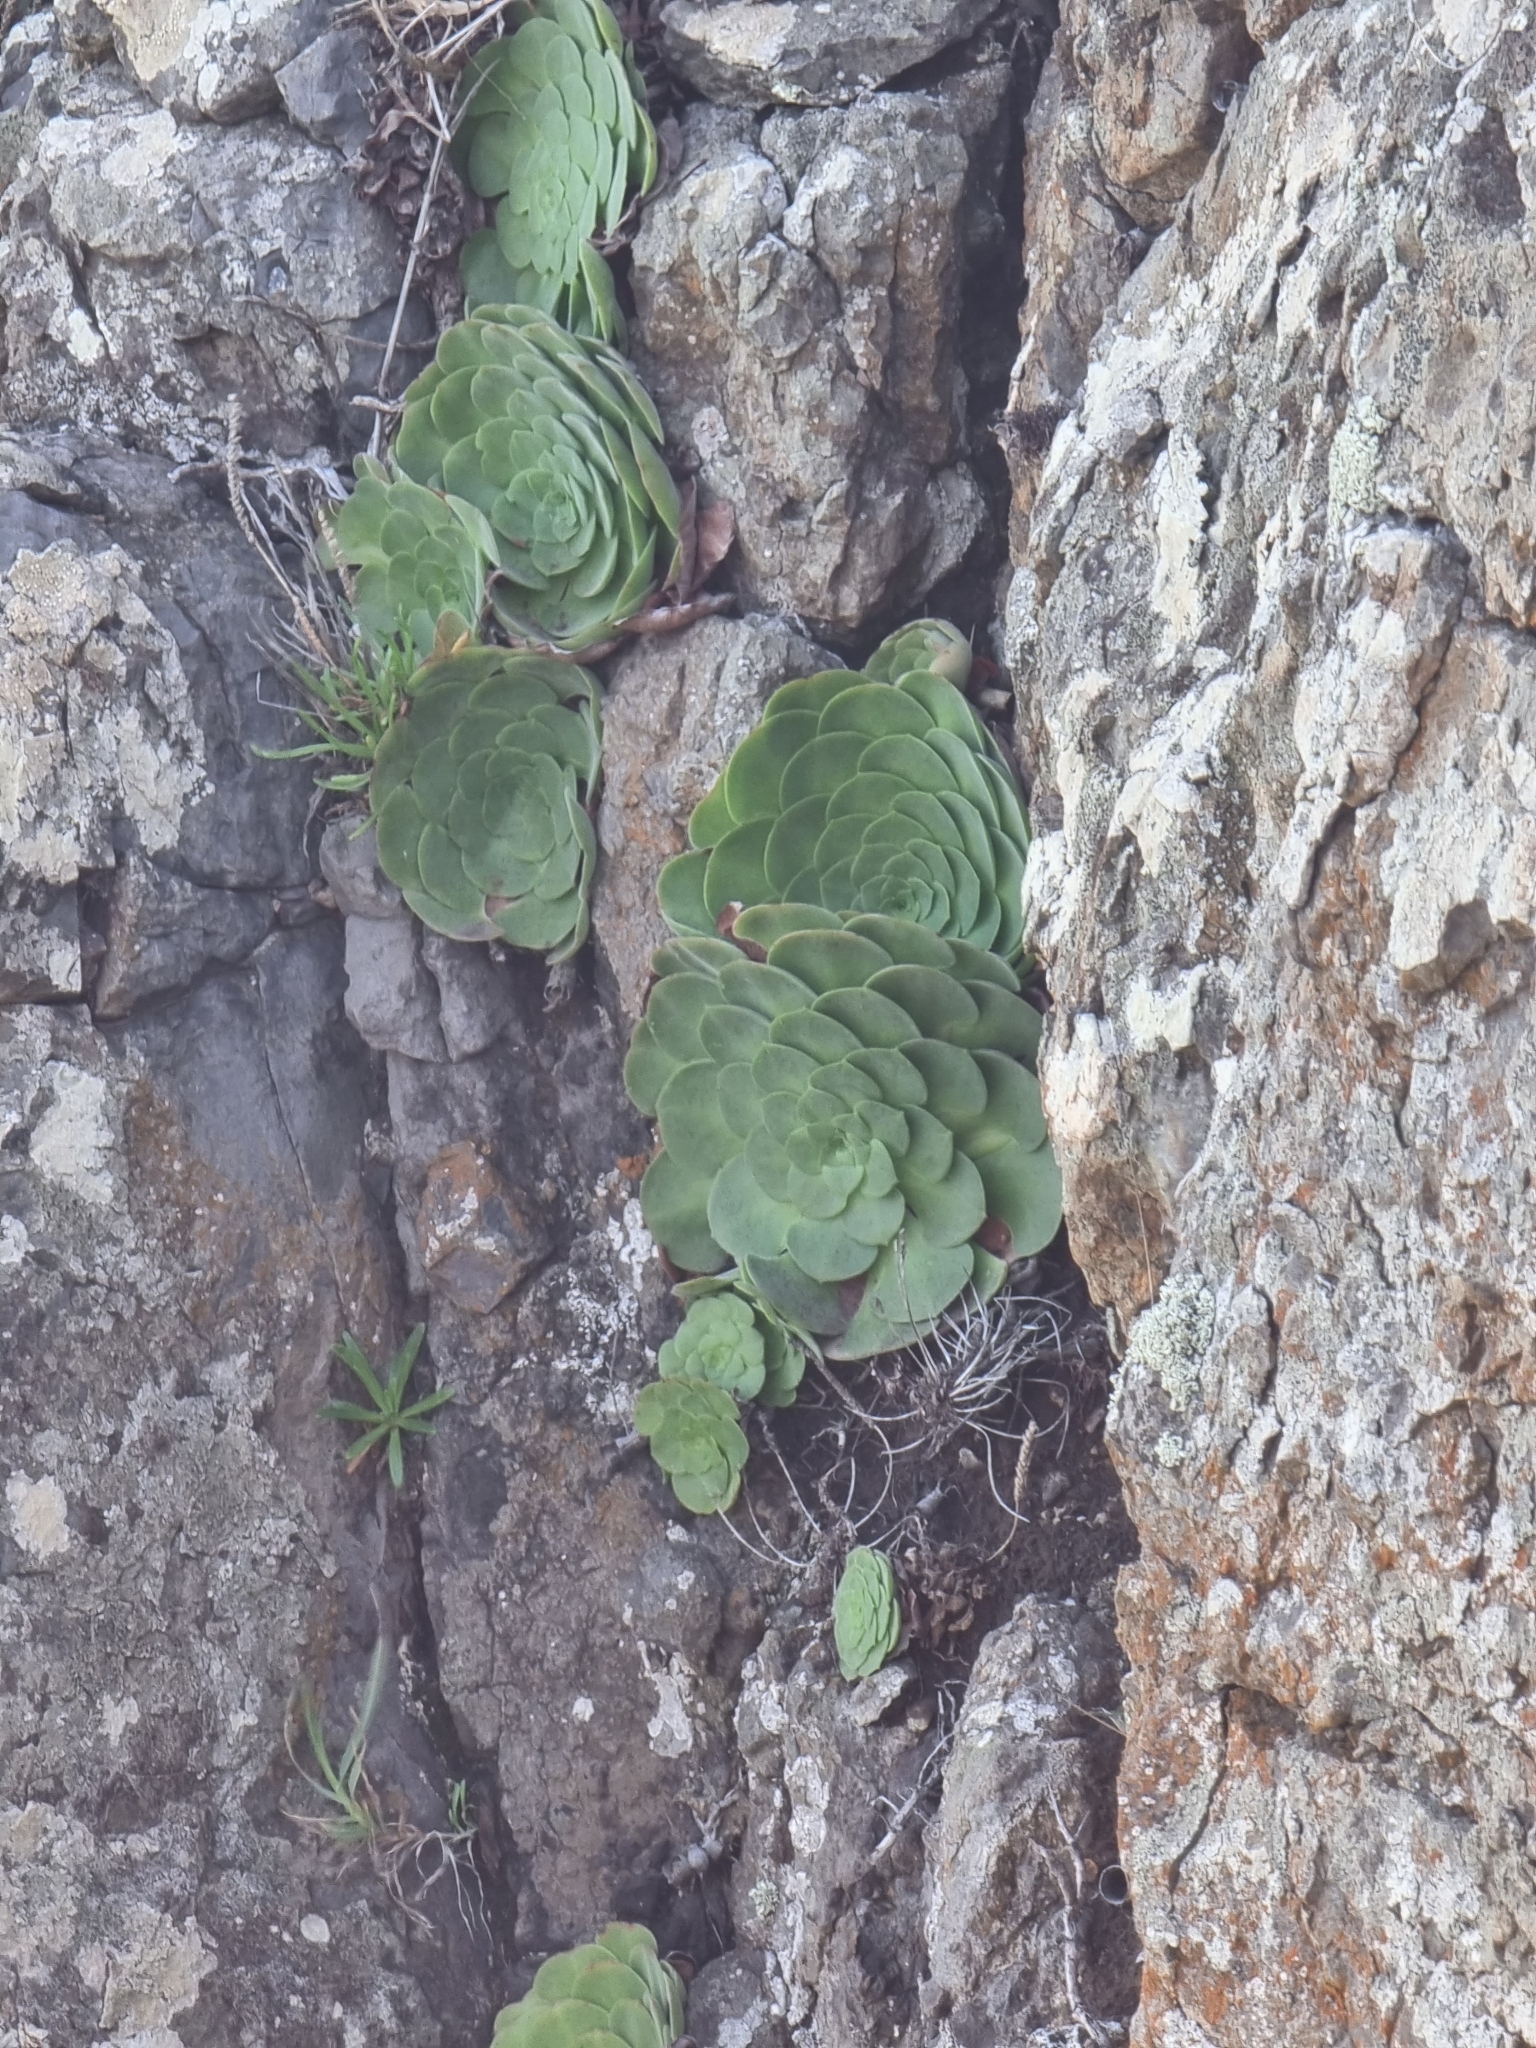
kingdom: Plantae
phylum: Tracheophyta
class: Magnoliopsida
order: Saxifragales
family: Crassulaceae
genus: Aeonium
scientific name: Aeonium glandulosum
